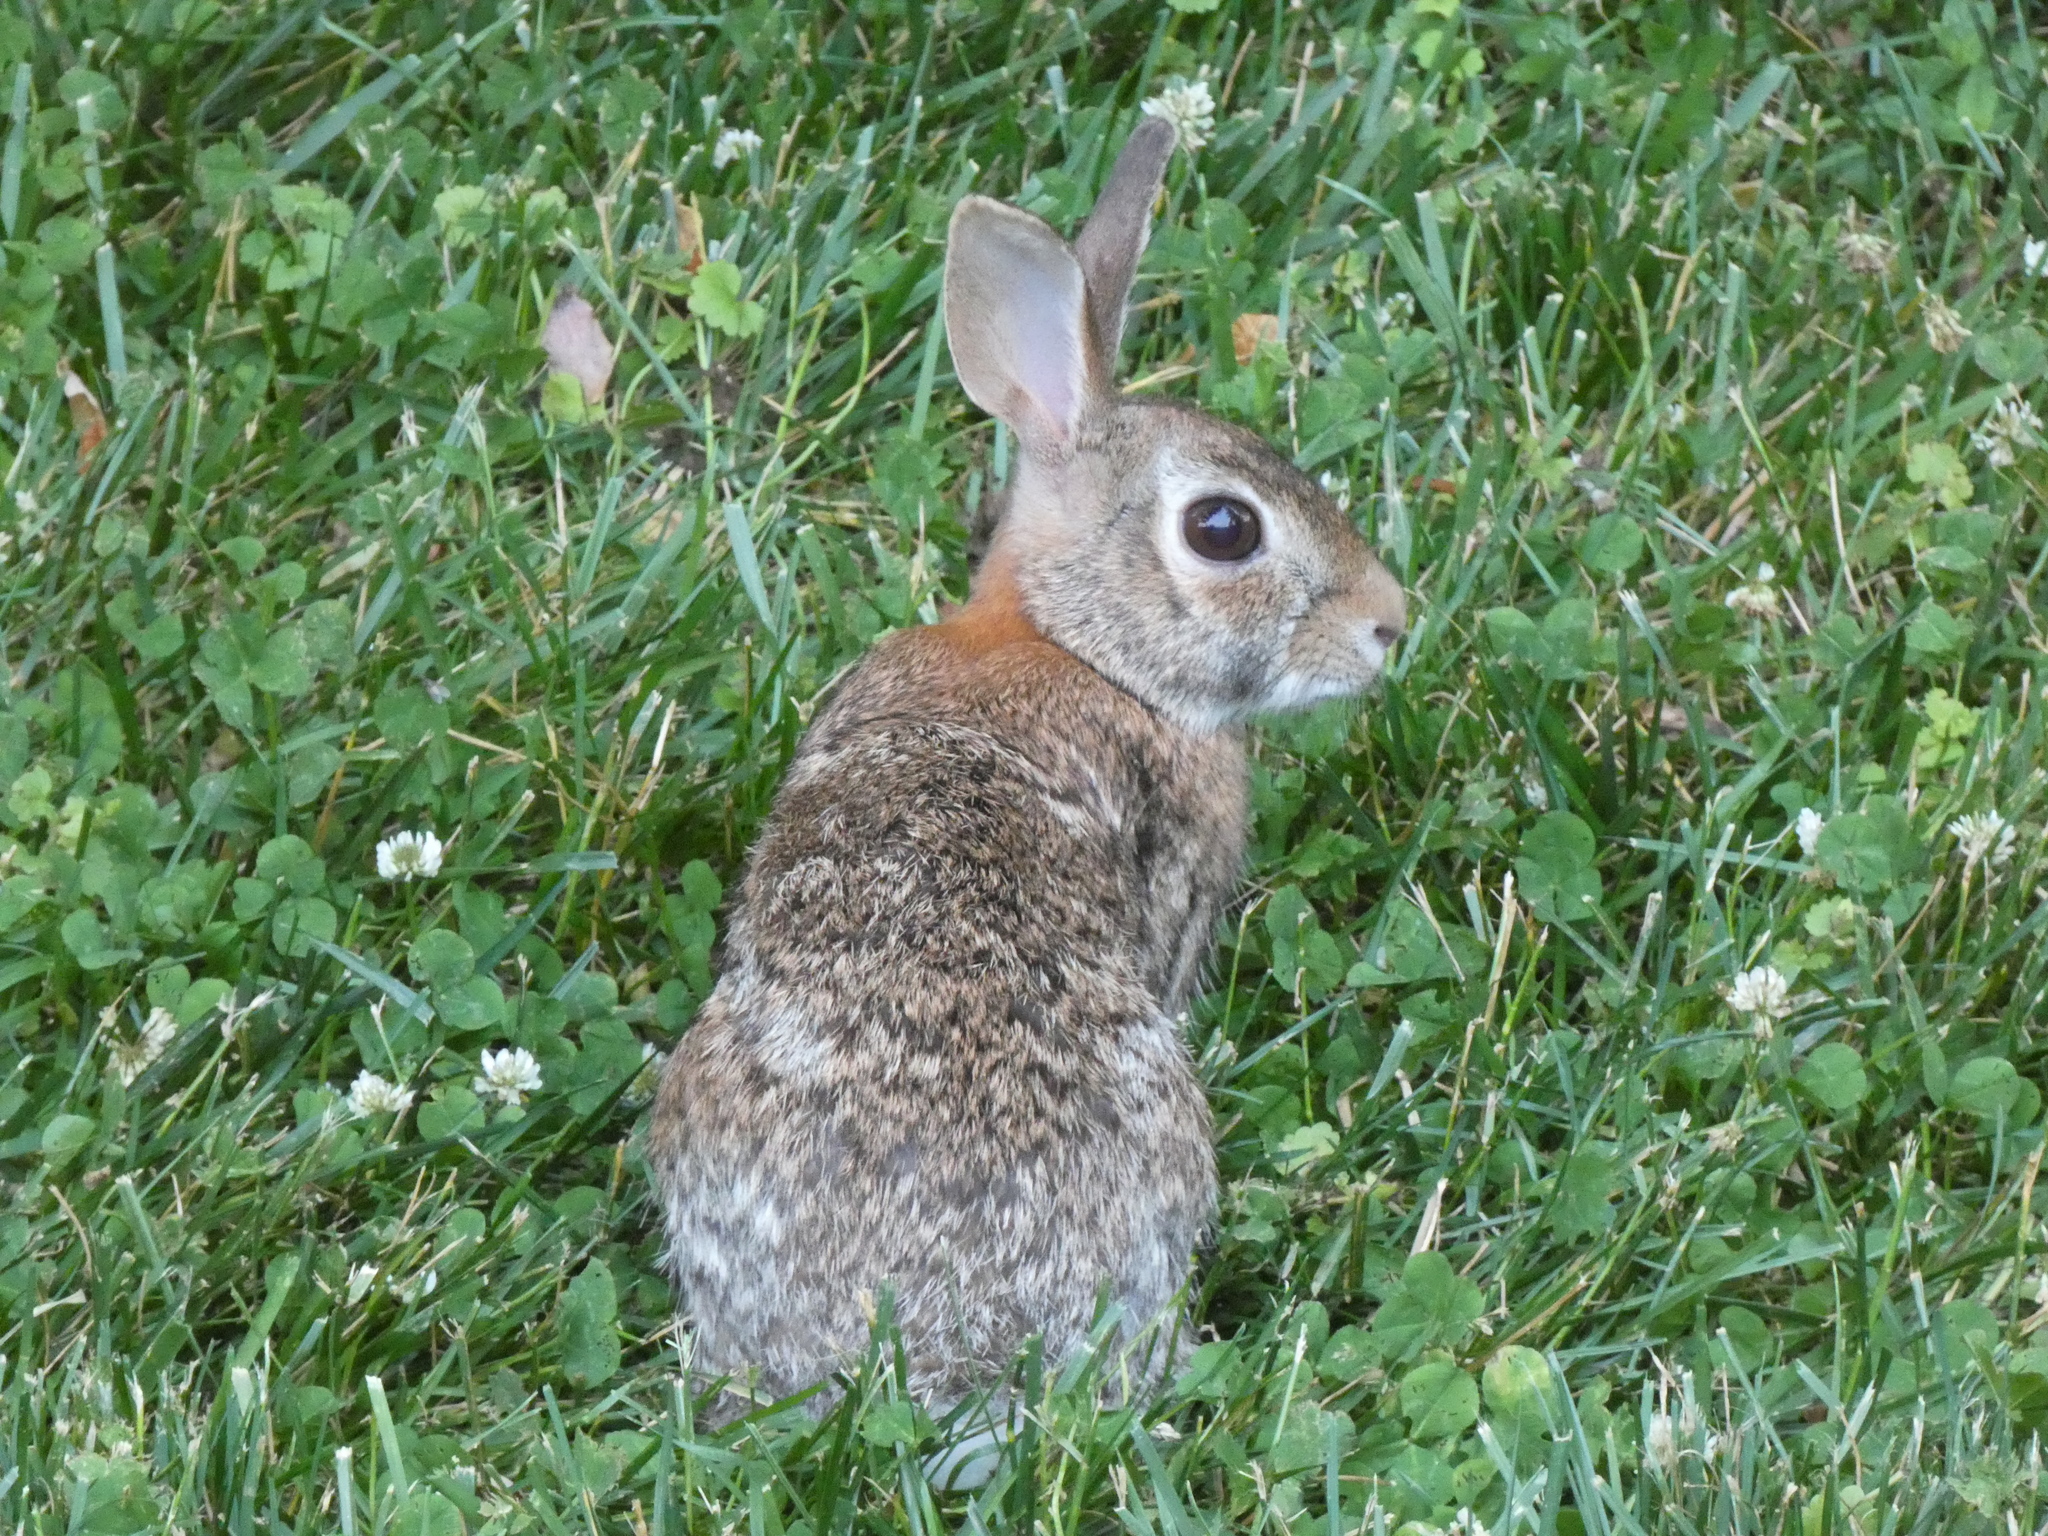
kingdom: Animalia
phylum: Chordata
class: Mammalia
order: Lagomorpha
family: Leporidae
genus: Sylvilagus
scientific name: Sylvilagus floridanus
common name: Eastern cottontail
